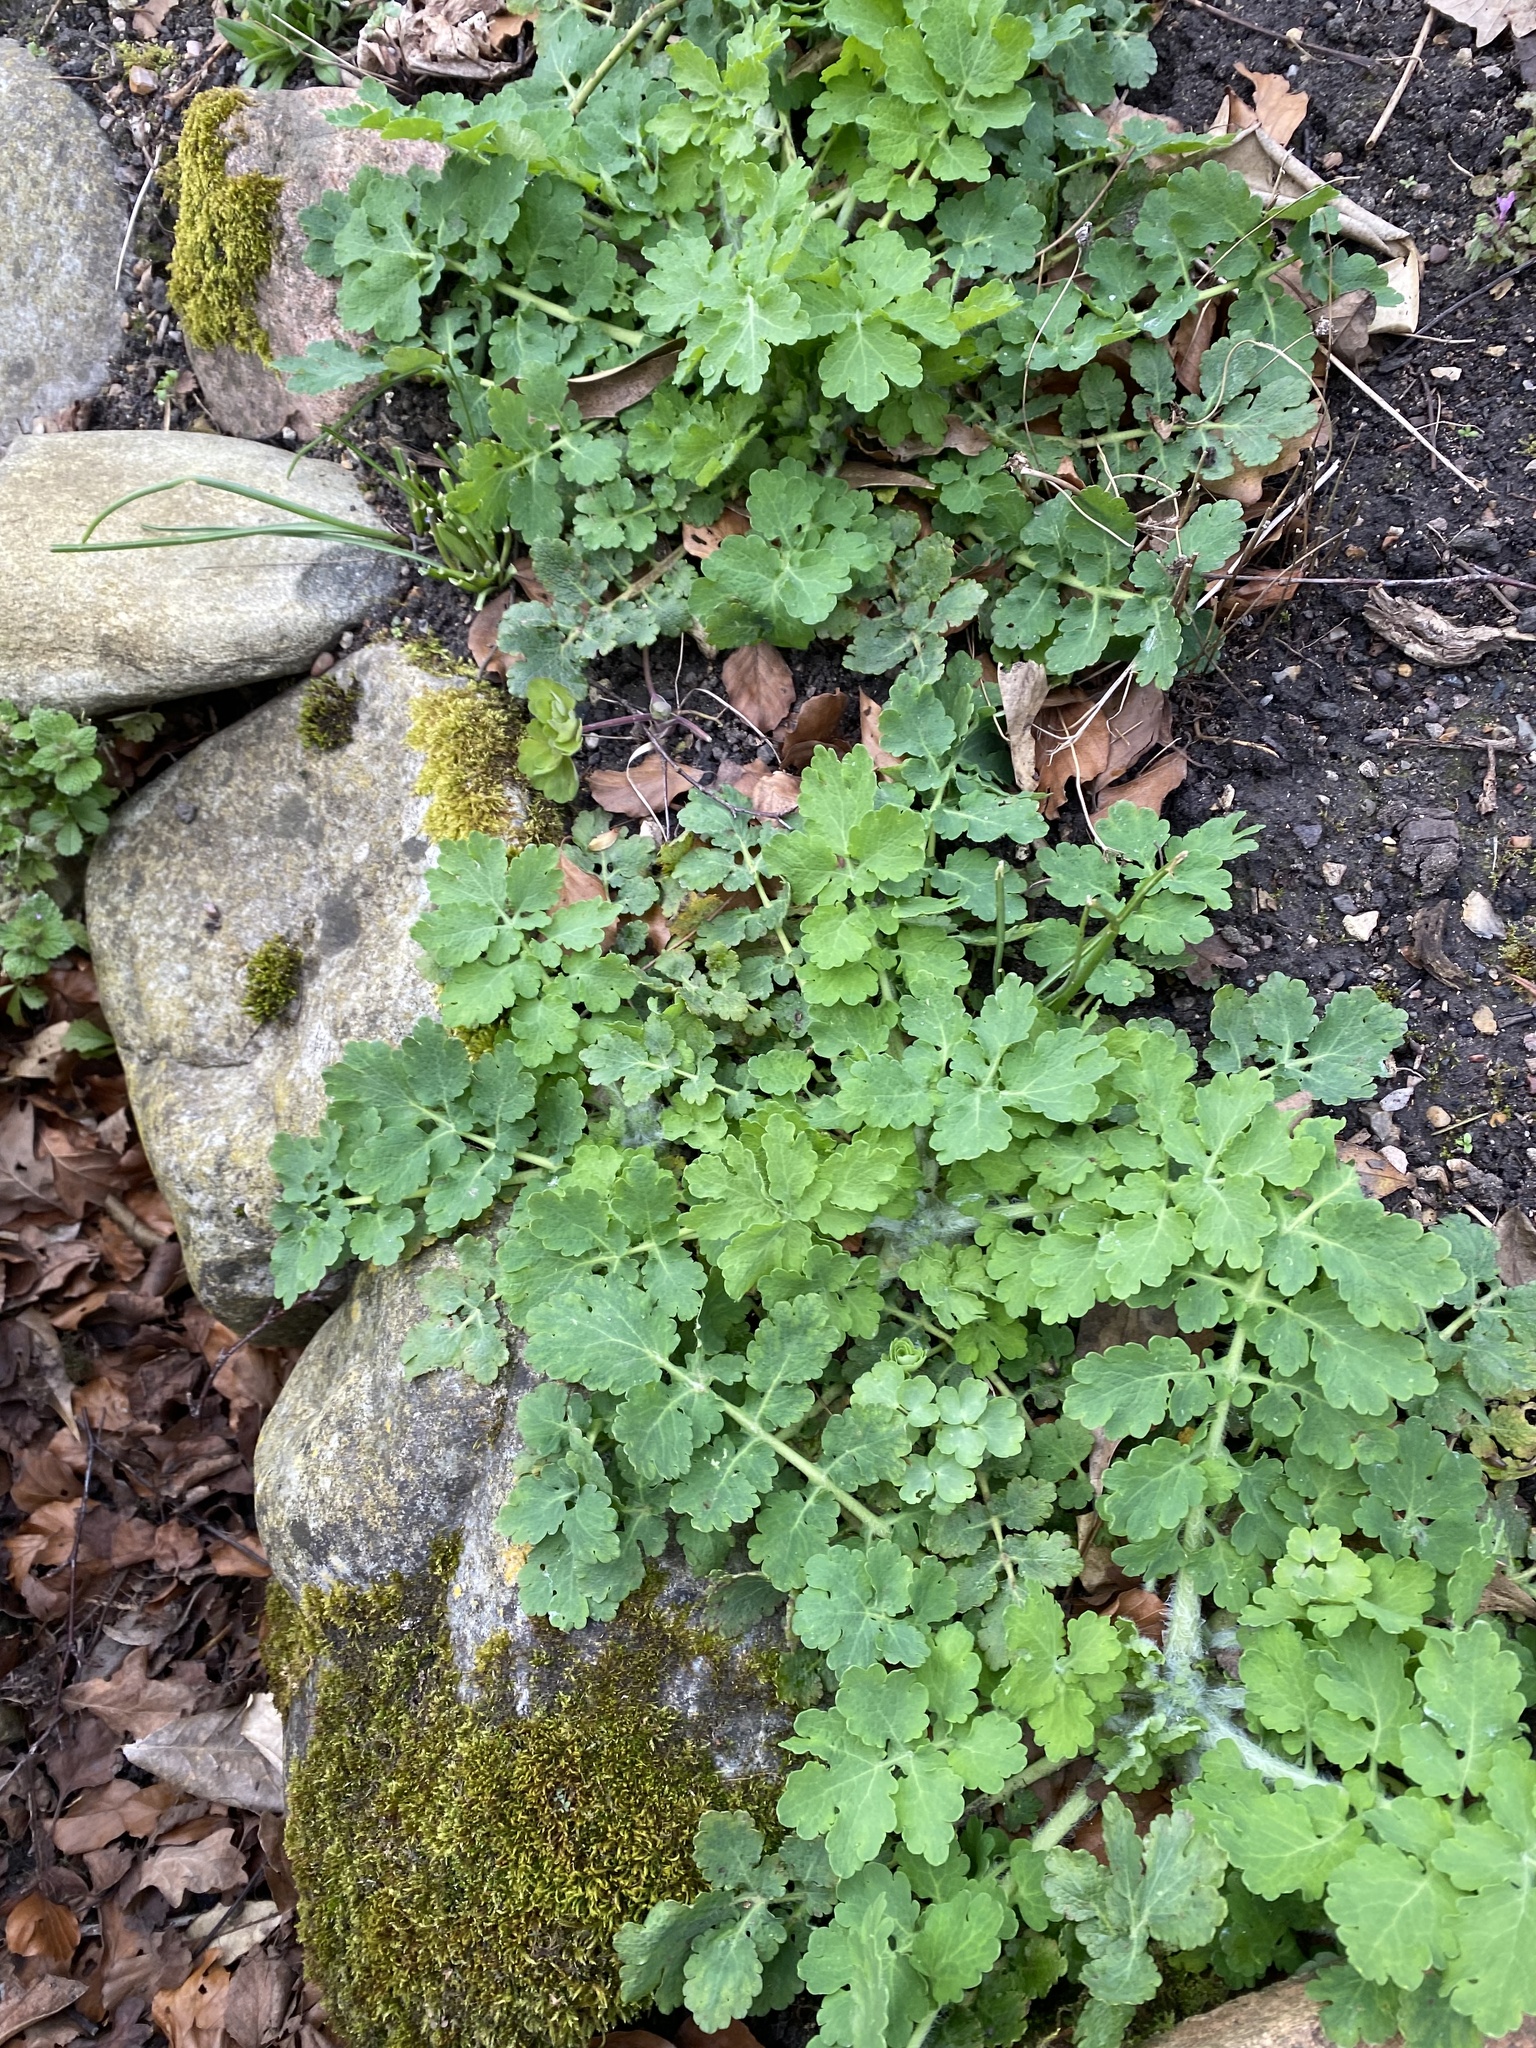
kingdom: Plantae
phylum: Tracheophyta
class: Magnoliopsida
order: Ranunculales
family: Papaveraceae
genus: Chelidonium
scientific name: Chelidonium majus
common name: Greater celandine
